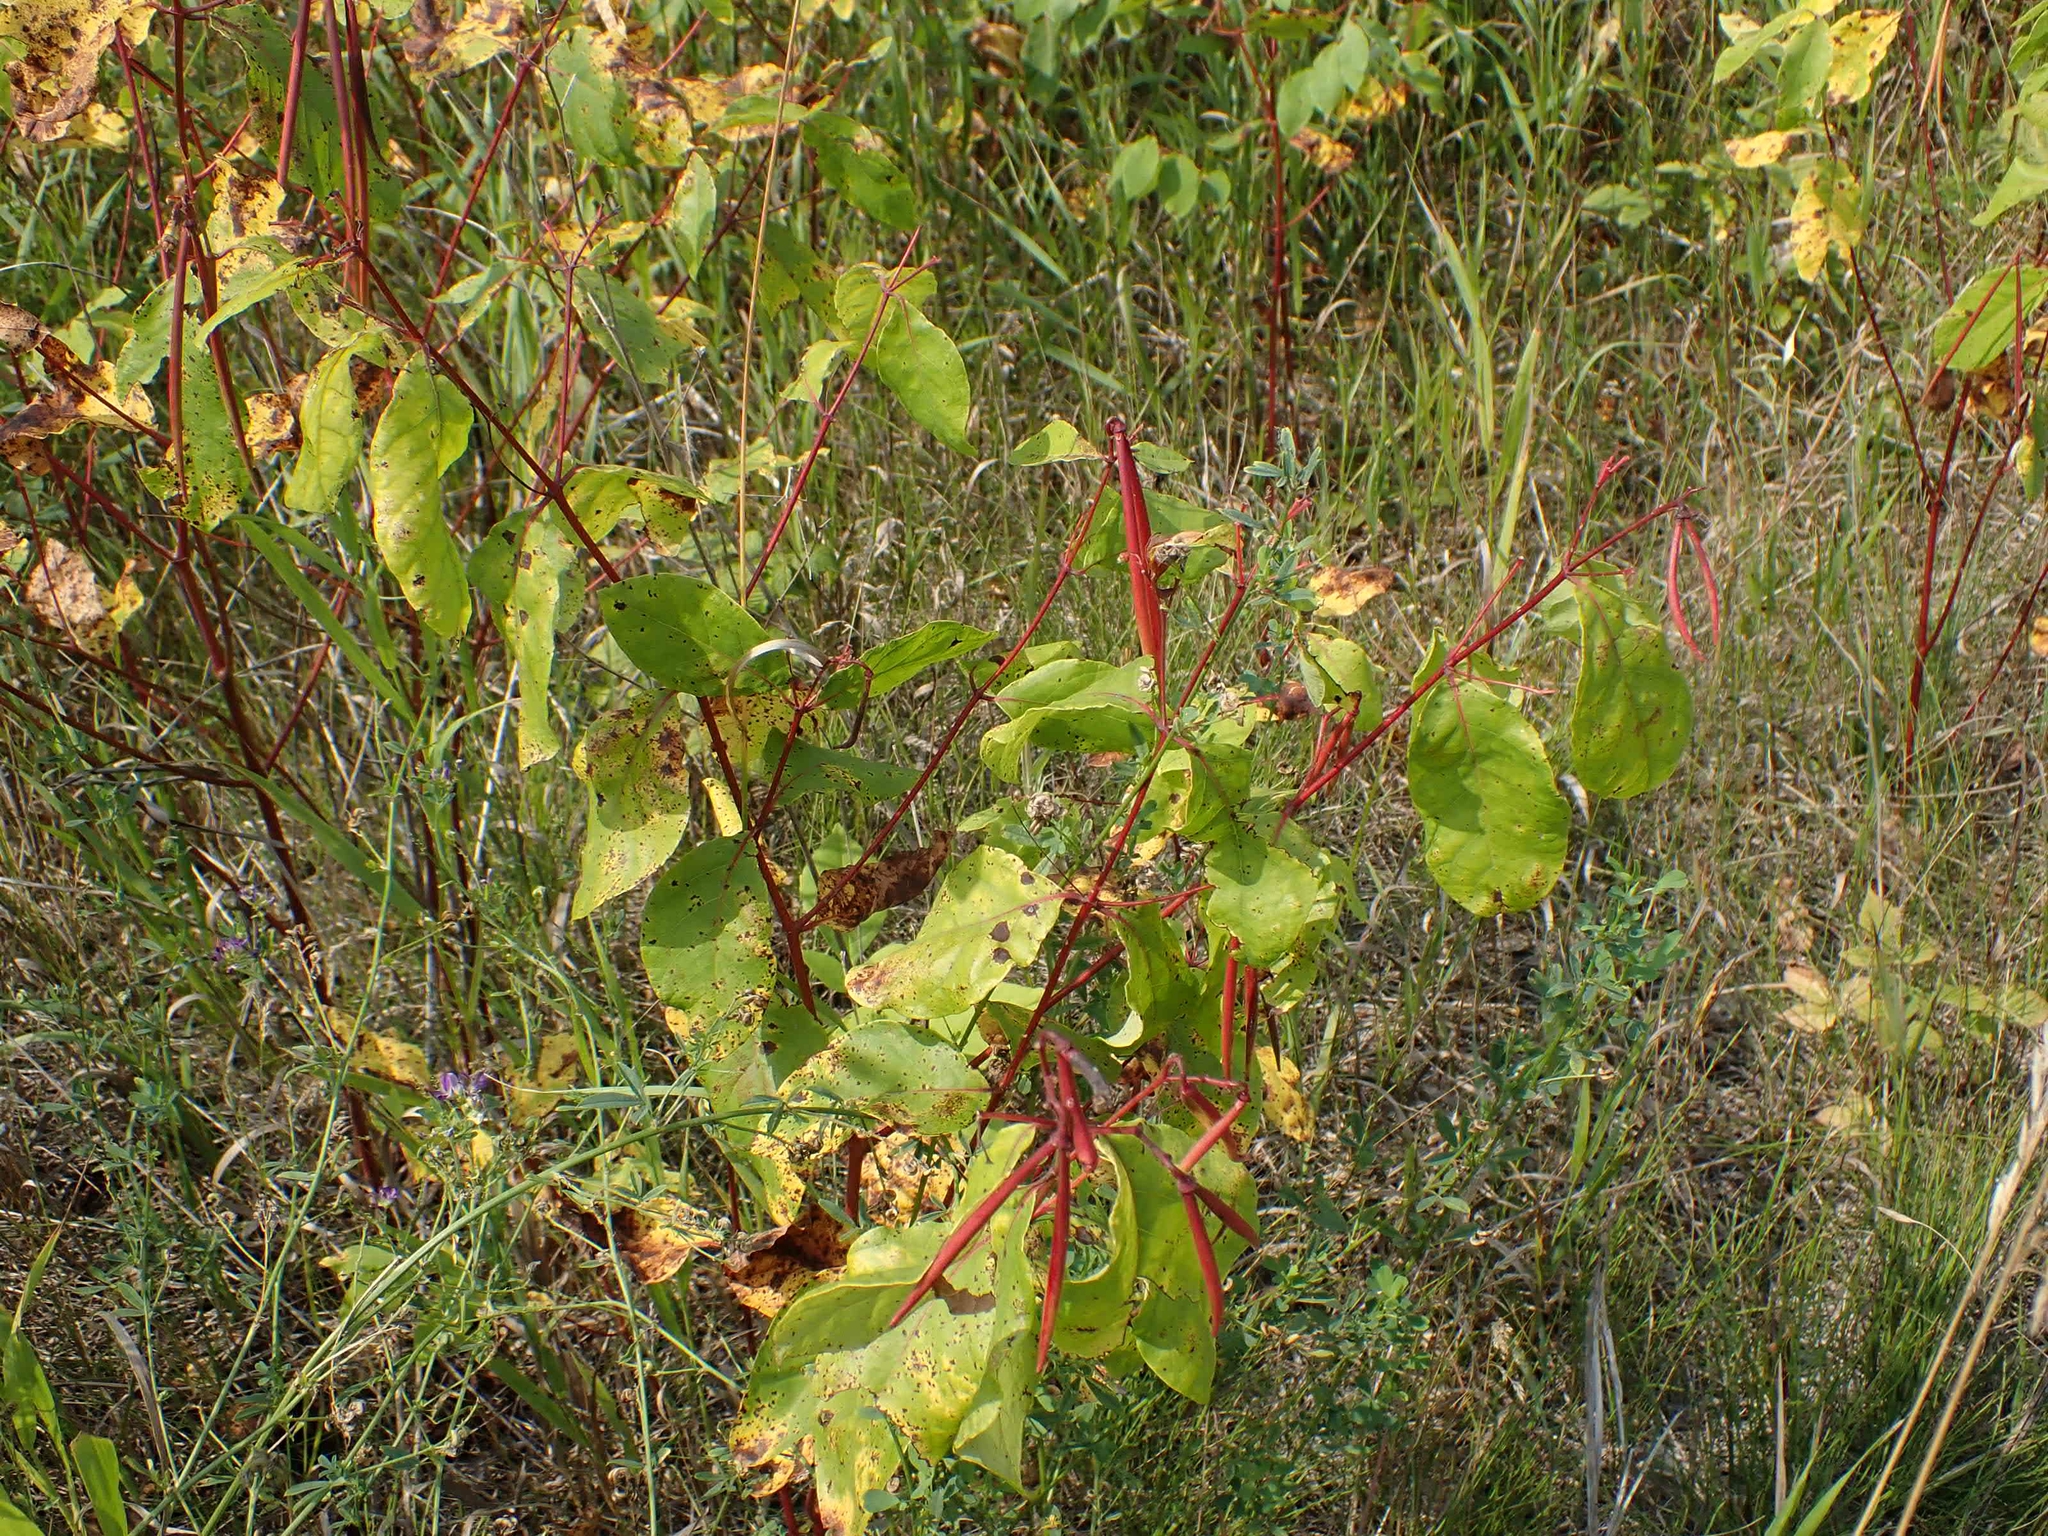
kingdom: Plantae
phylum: Tracheophyta
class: Magnoliopsida
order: Gentianales
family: Apocynaceae
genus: Apocynum
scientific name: Apocynum androsaemifolium
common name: Spreading dogbane
